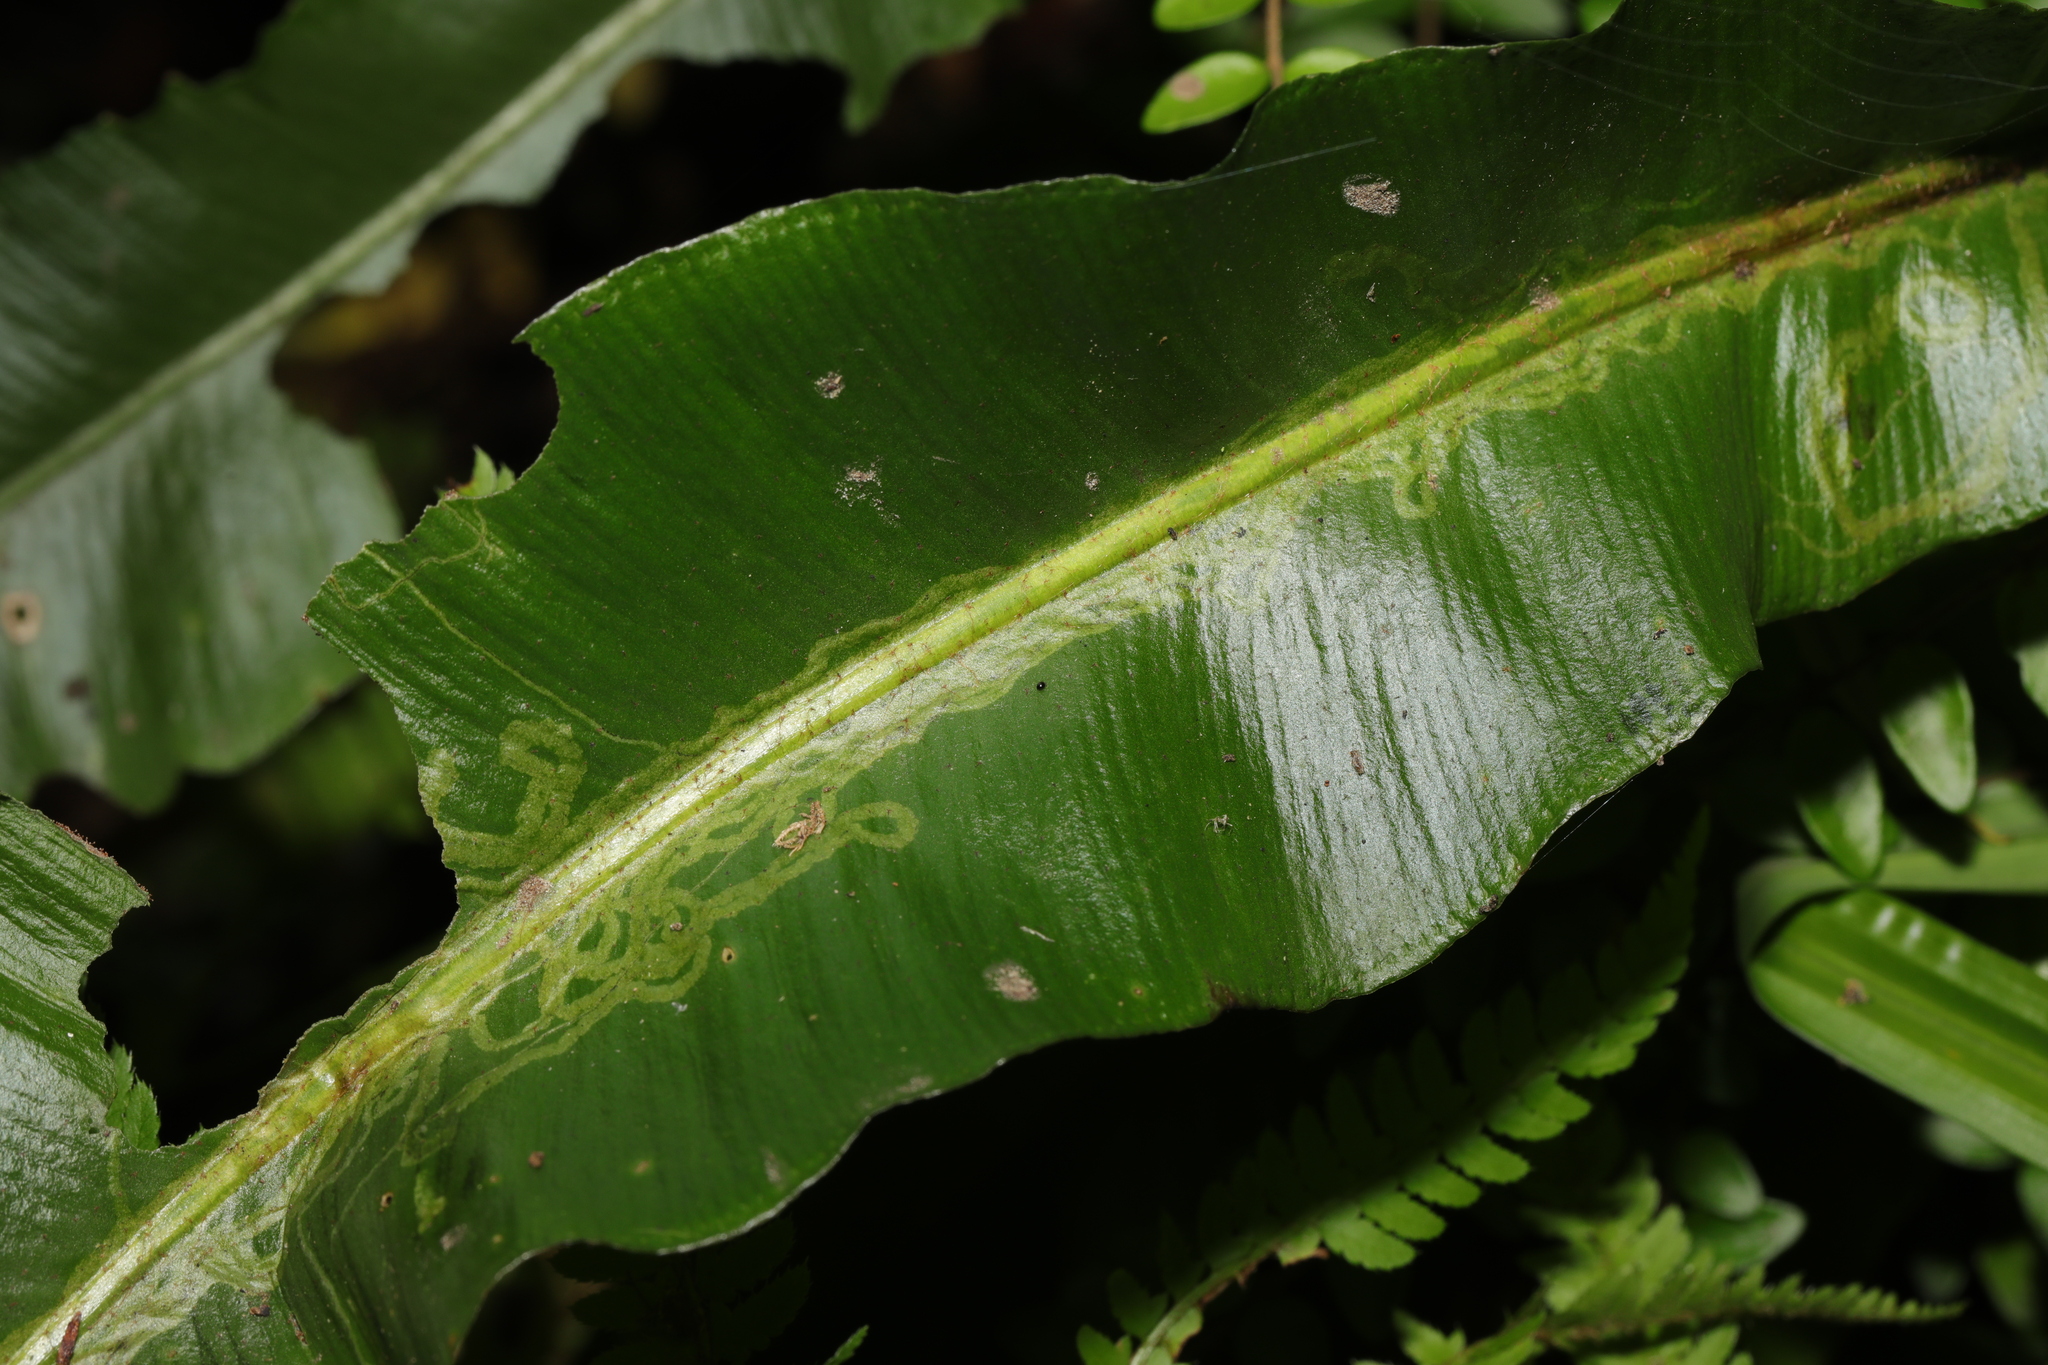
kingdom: Animalia
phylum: Arthropoda
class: Insecta
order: Diptera
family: Agromyzidae
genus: Phytomyza
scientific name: Phytomyza scolopendri
